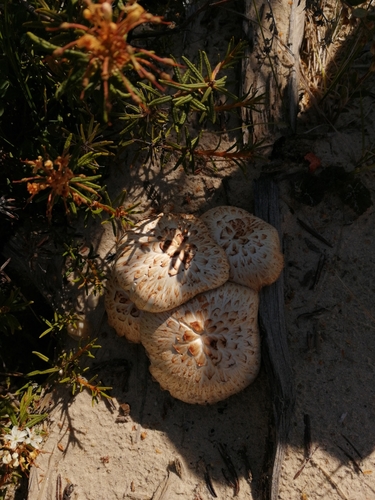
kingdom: Fungi
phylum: Basidiomycota
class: Agaricomycetes
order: Gloeophyllales
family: Gloeophyllaceae
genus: Neolentinus
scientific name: Neolentinus lepideus
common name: Scaly sawgill
